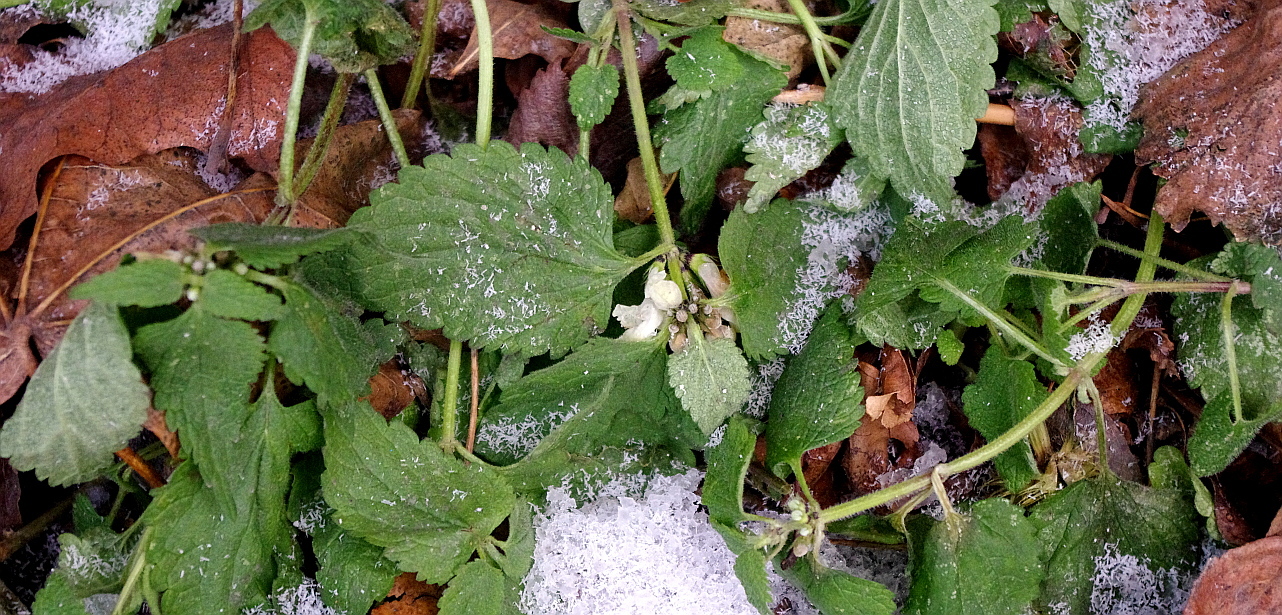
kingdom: Plantae
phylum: Tracheophyta
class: Magnoliopsida
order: Lamiales
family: Lamiaceae
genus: Lamium
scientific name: Lamium album
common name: White dead-nettle
